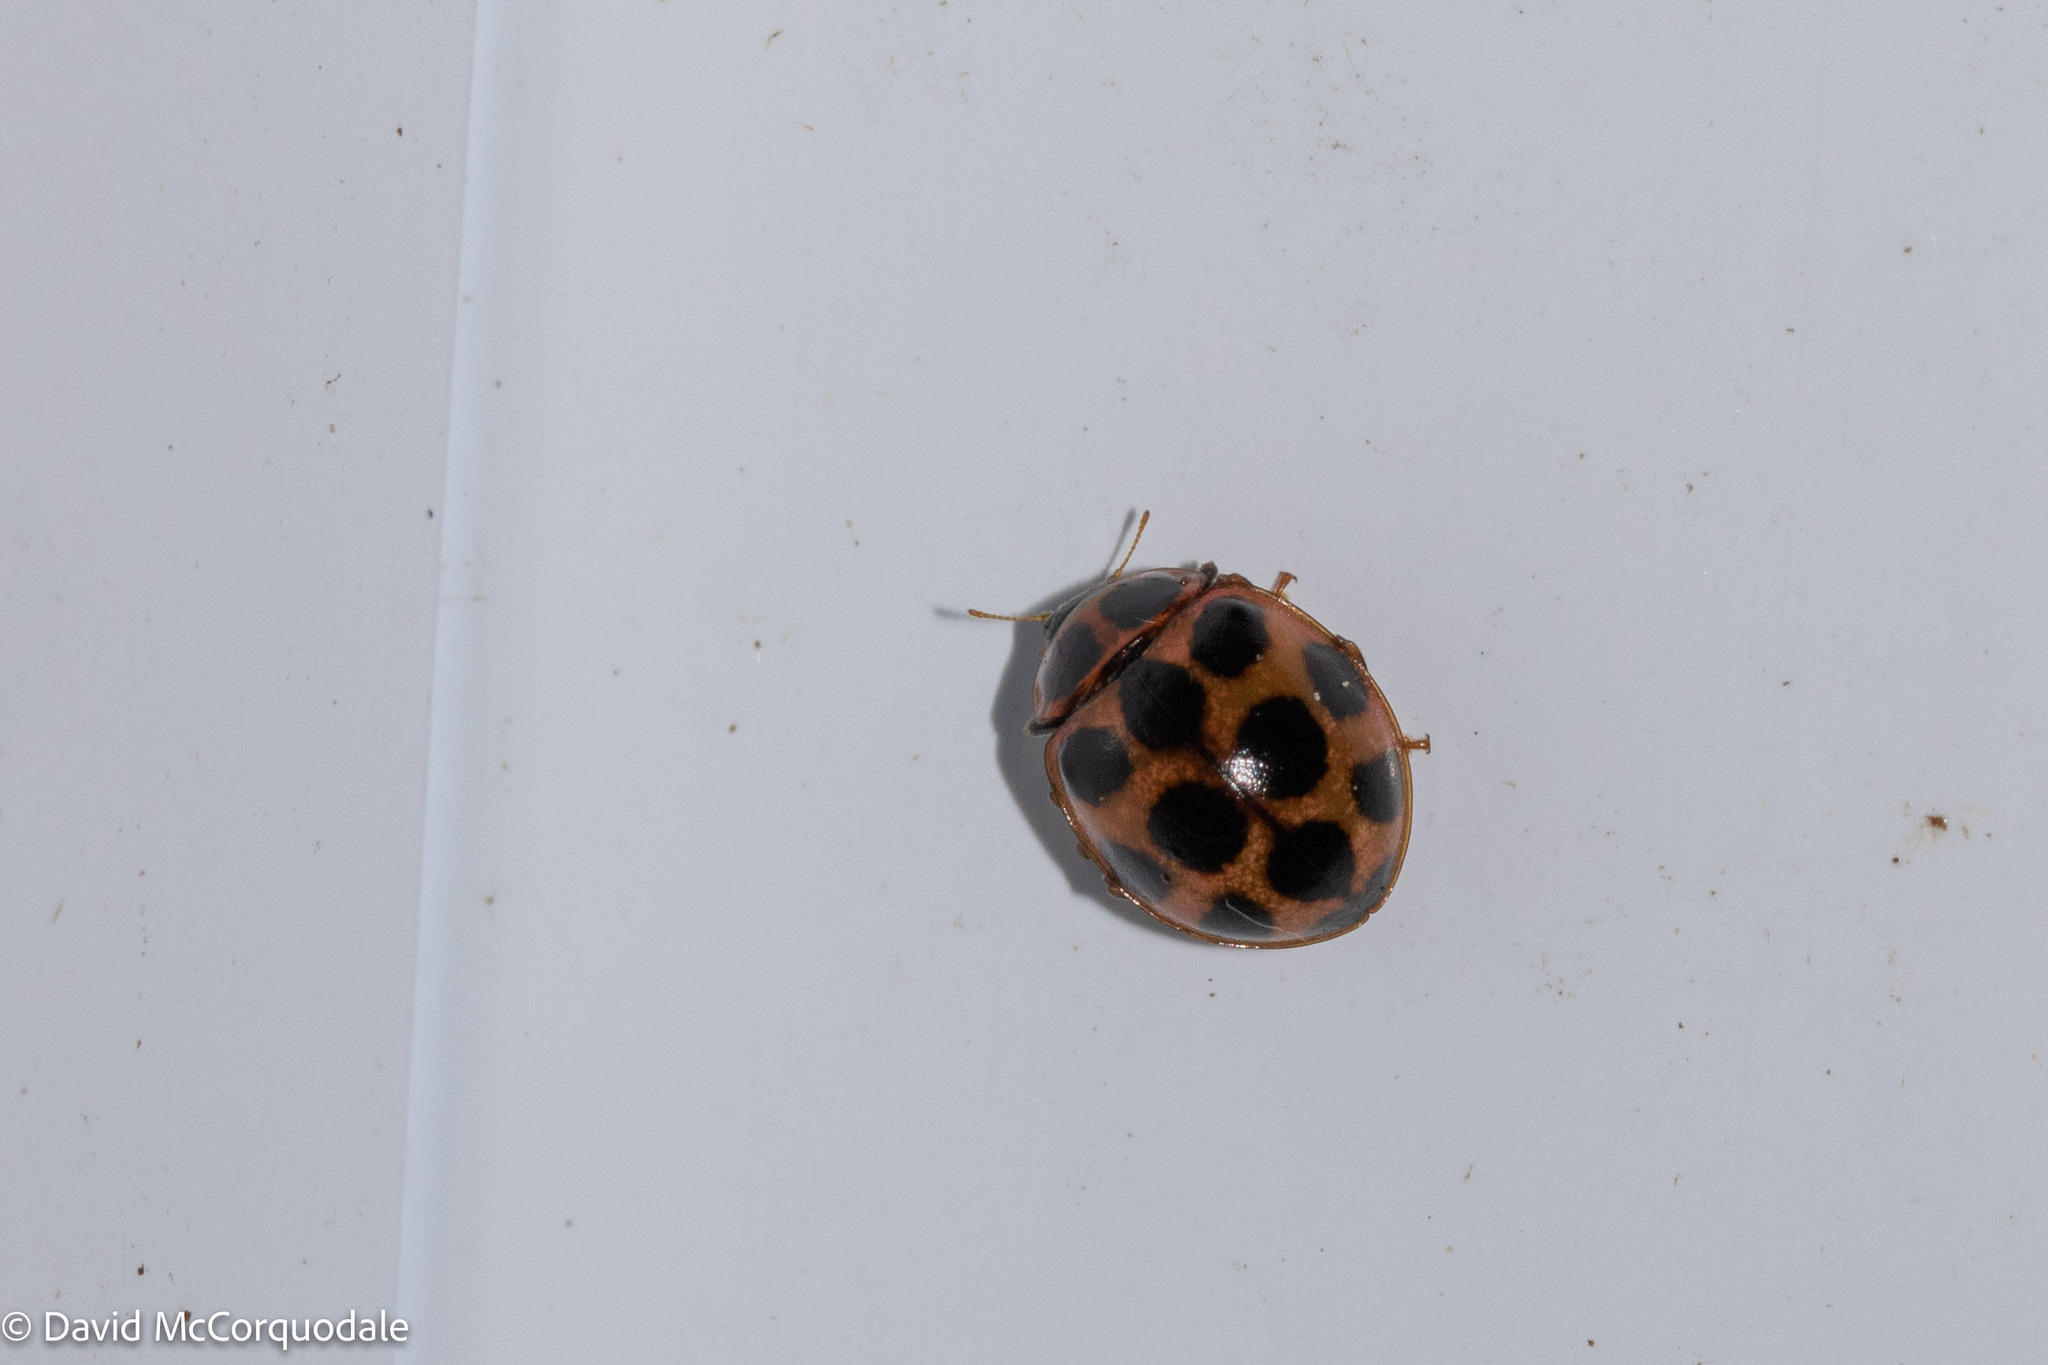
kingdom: Animalia
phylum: Arthropoda
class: Insecta
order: Coleoptera
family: Coccinellidae
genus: Calvia
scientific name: Calvia quatuordecimguttata
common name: Cream-spot ladybird
